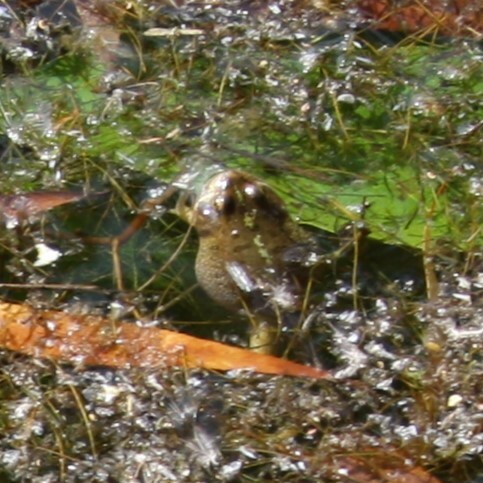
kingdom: Animalia
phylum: Chordata
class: Amphibia
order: Anura
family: Ranidae
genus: Pelophylax
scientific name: Pelophylax ridibundus
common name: Marsh frog
